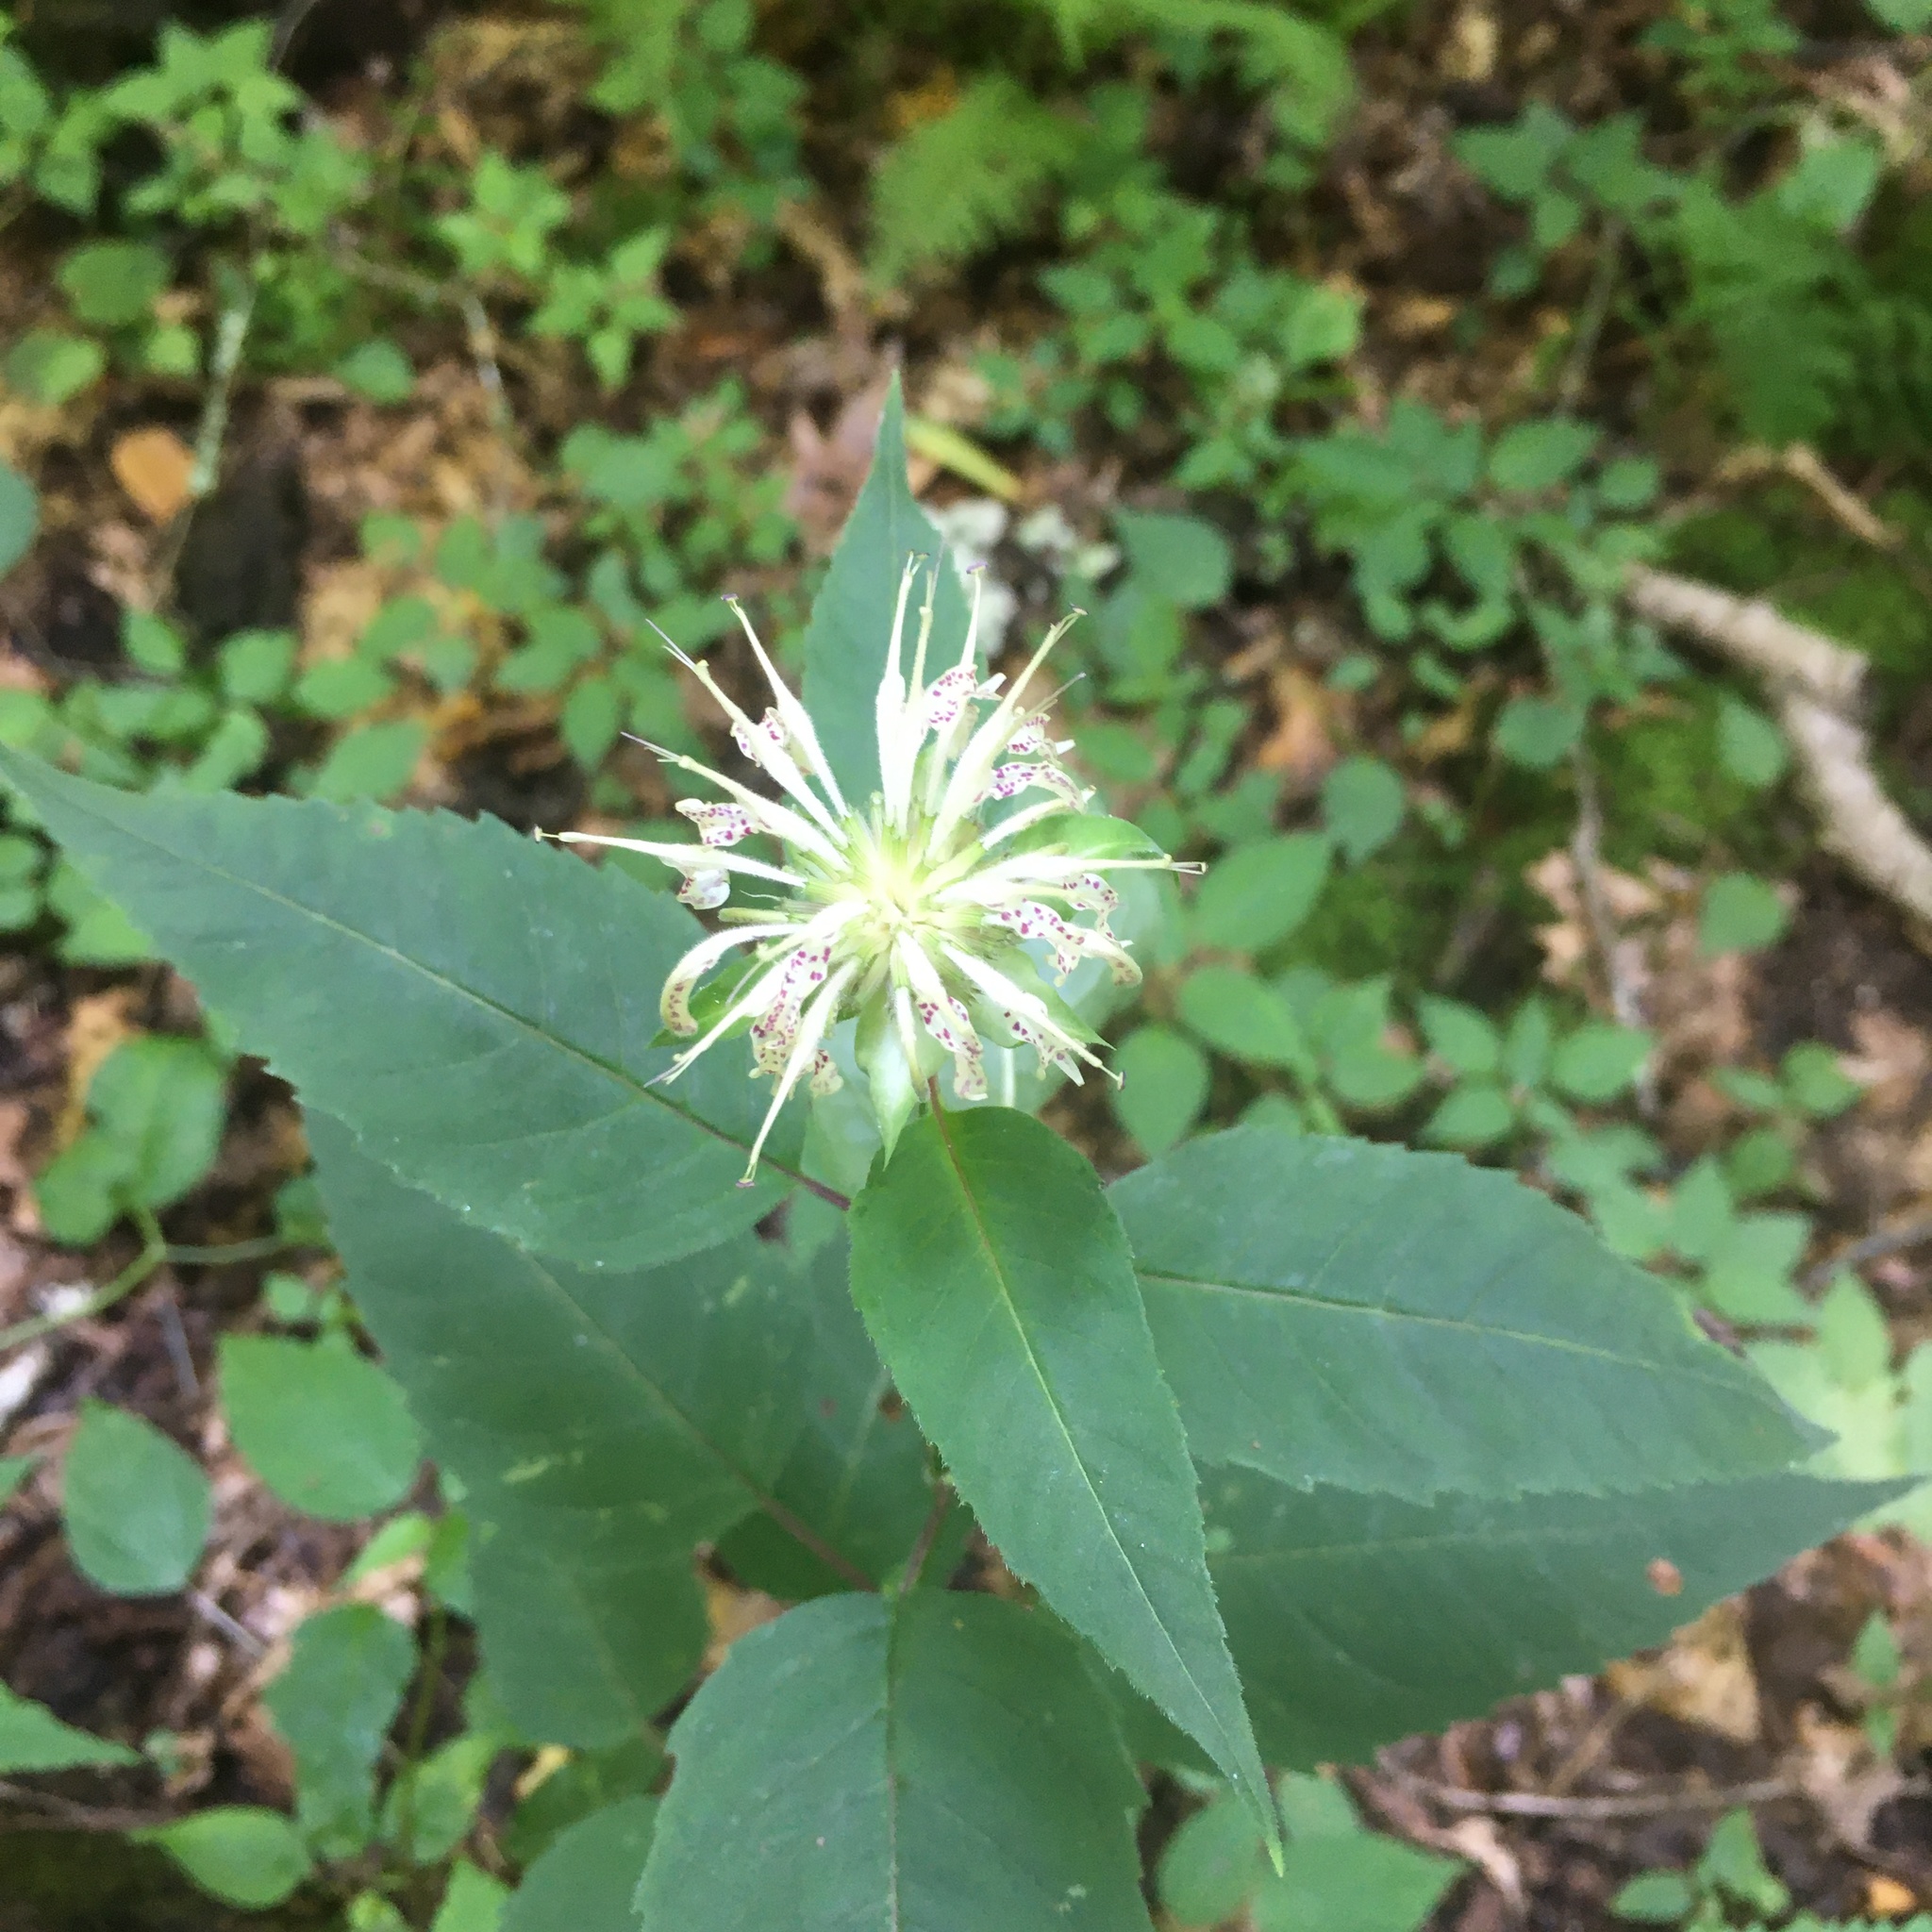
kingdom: Plantae
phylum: Tracheophyta
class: Magnoliopsida
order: Lamiales
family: Lamiaceae
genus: Monarda
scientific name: Monarda clinopodia
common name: Basil beebalm
